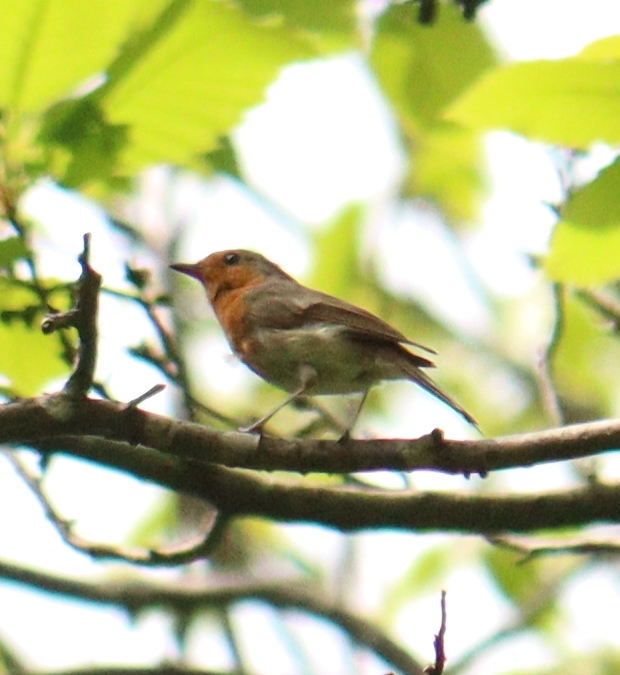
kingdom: Animalia
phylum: Chordata
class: Aves
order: Passeriformes
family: Muscicapidae
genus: Erithacus
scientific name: Erithacus rubecula
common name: European robin
